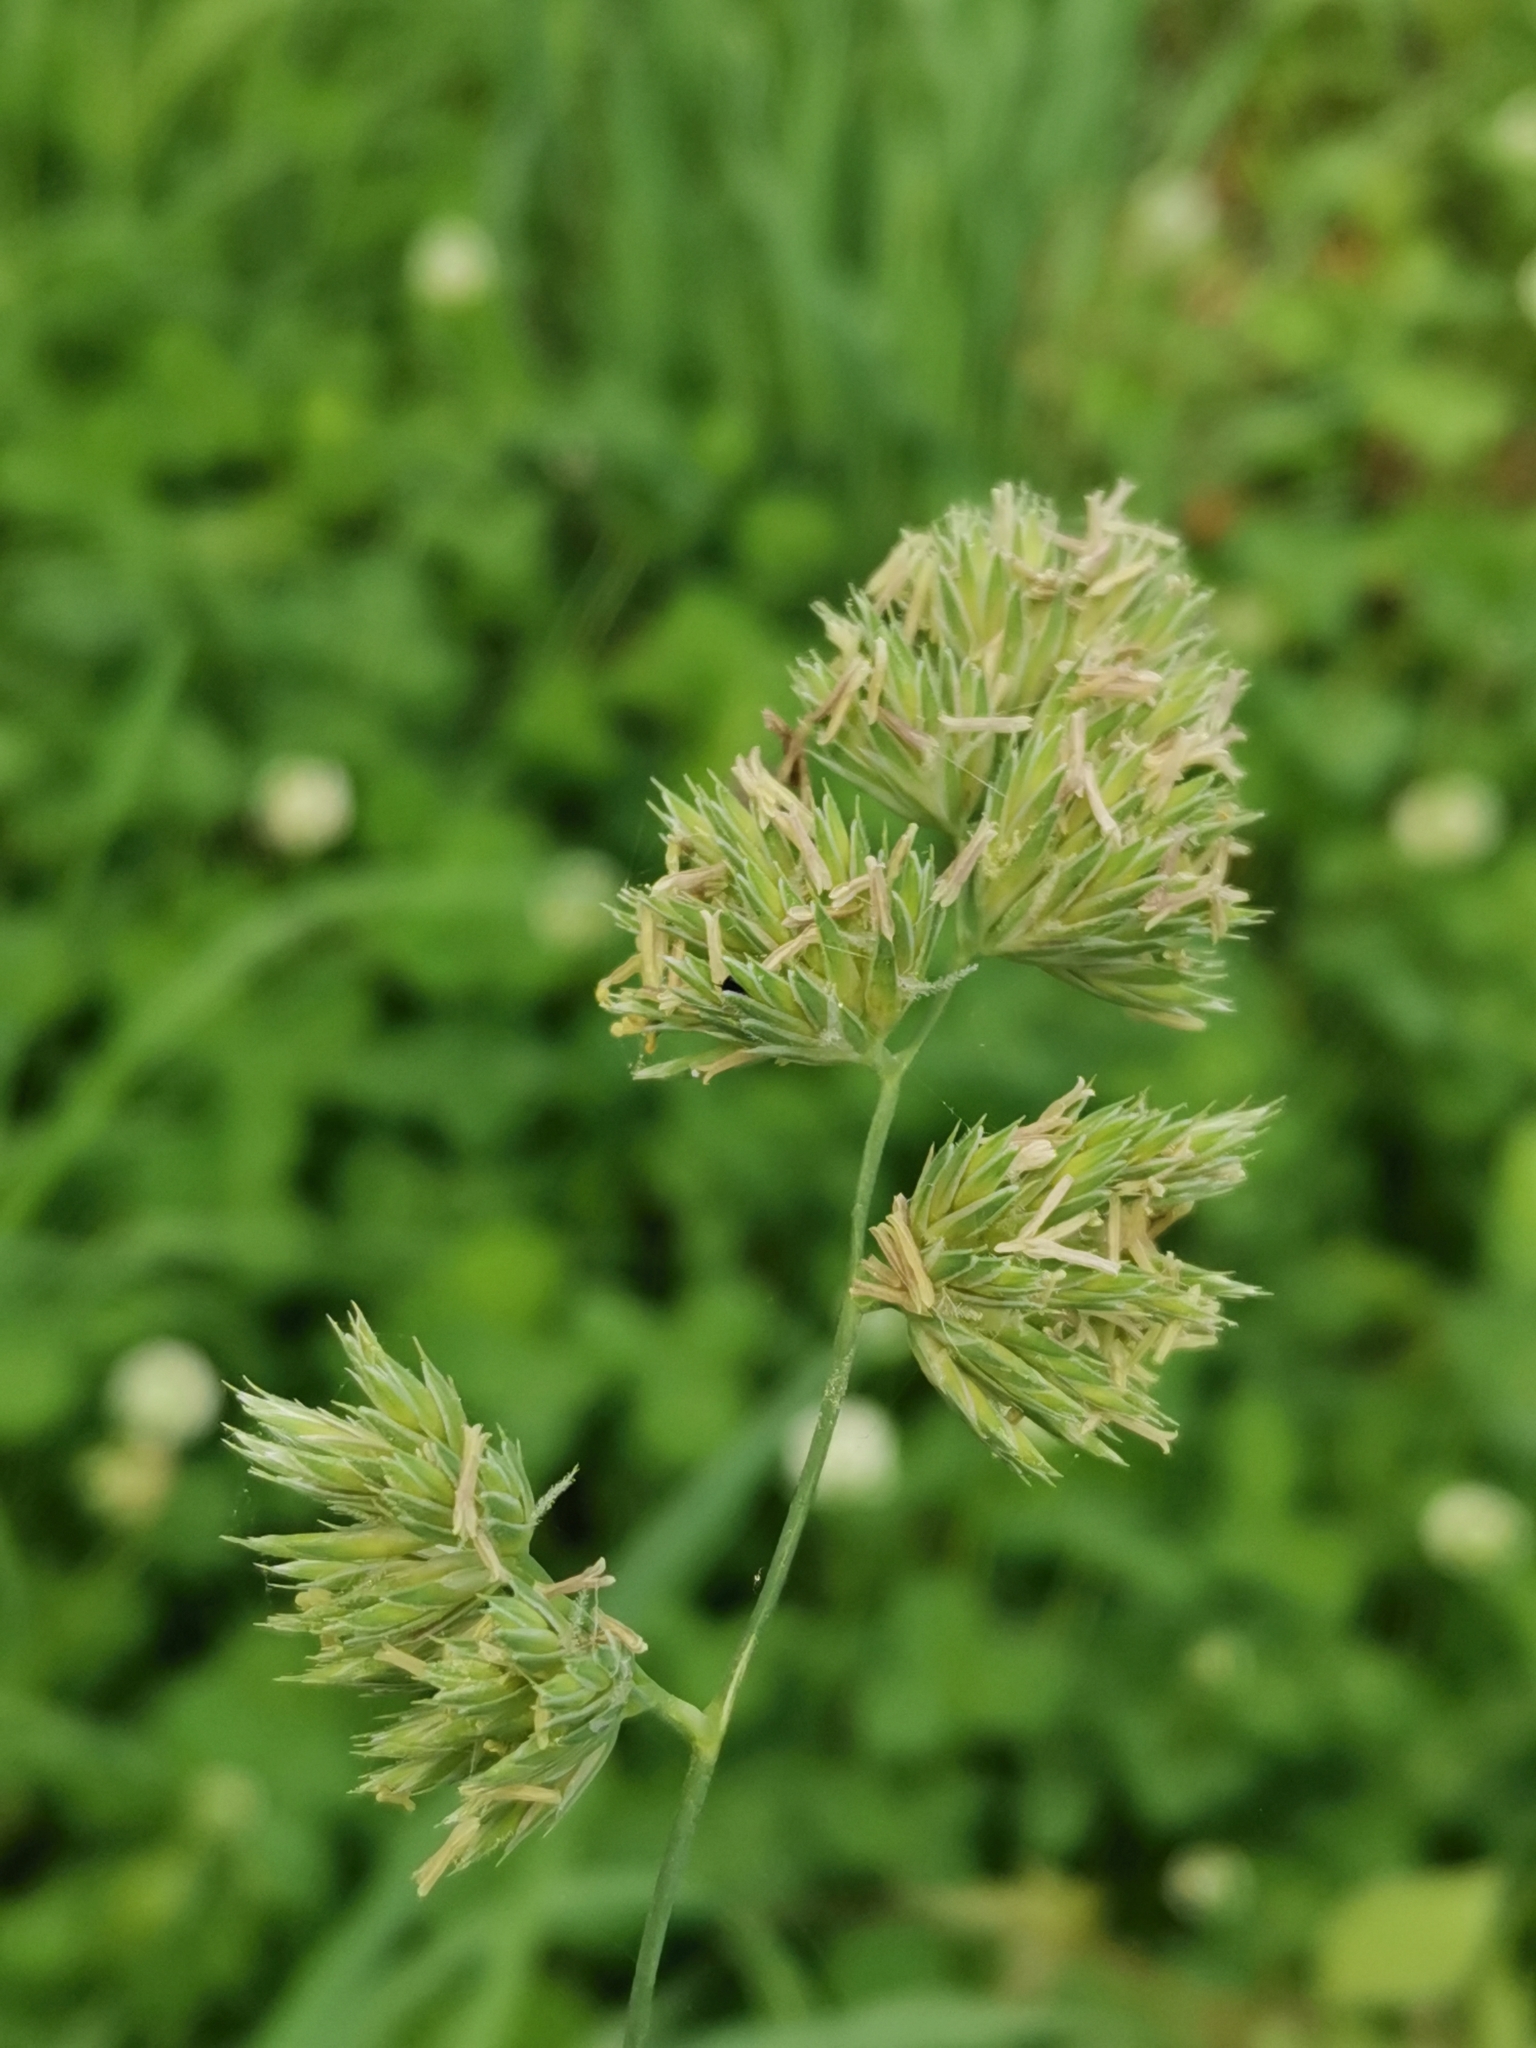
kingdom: Plantae
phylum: Tracheophyta
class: Liliopsida
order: Poales
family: Poaceae
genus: Dactylis
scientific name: Dactylis glomerata
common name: Orchardgrass
